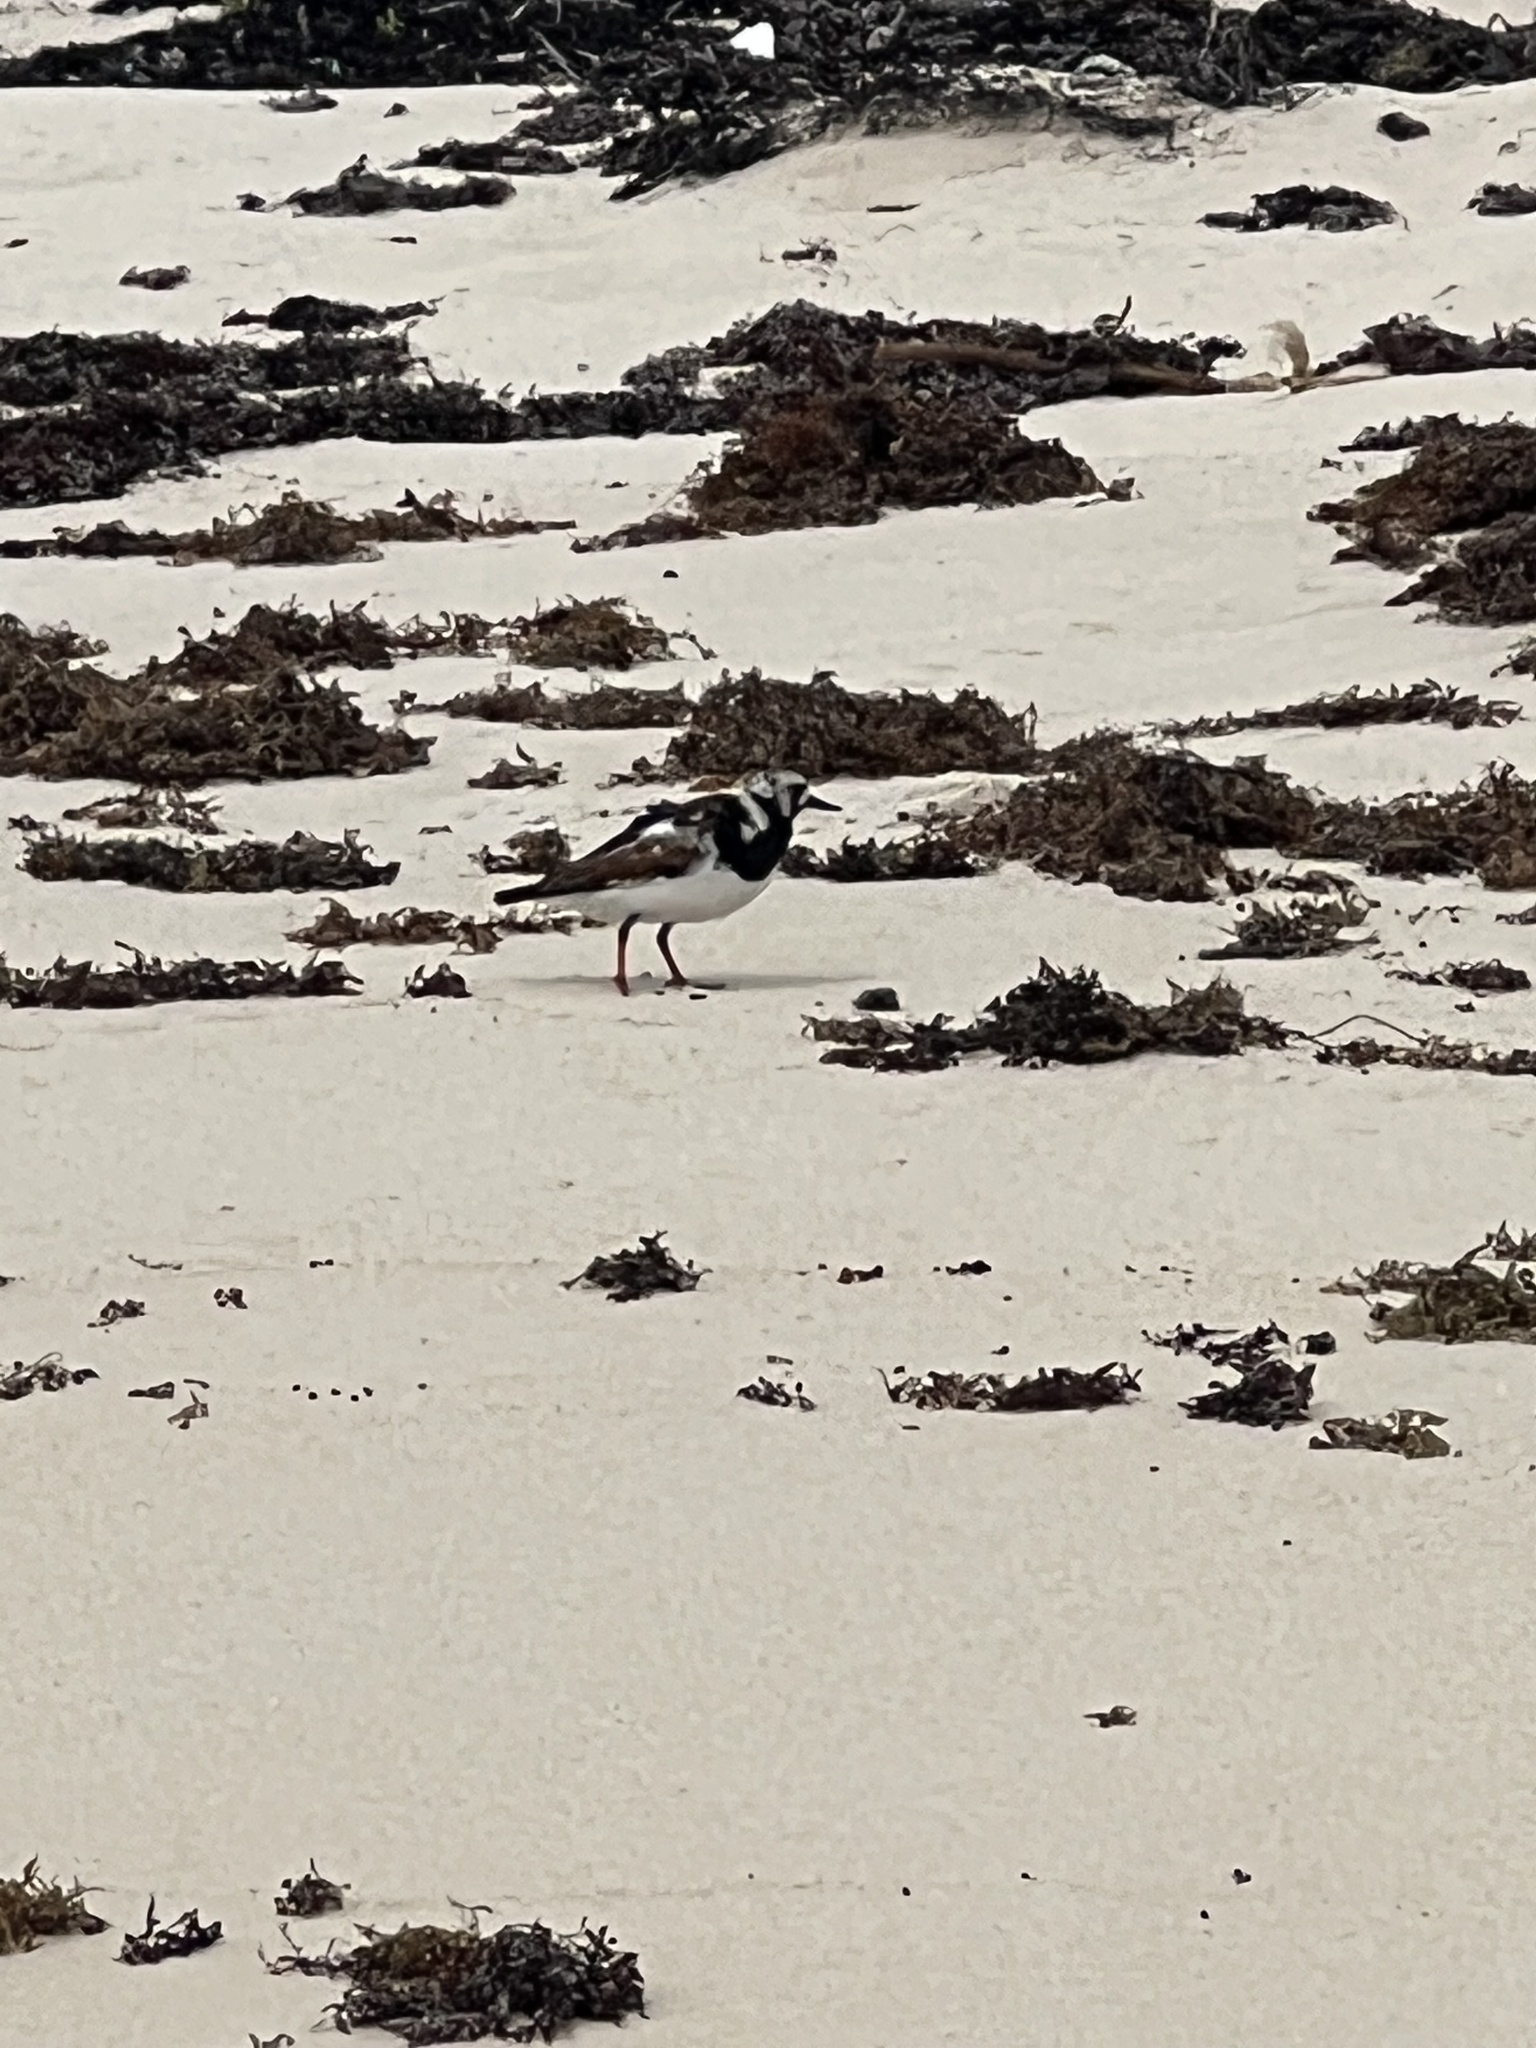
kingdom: Animalia
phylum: Chordata
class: Aves
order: Charadriiformes
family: Scolopacidae
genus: Arenaria
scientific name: Arenaria interpres
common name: Ruddy turnstone
